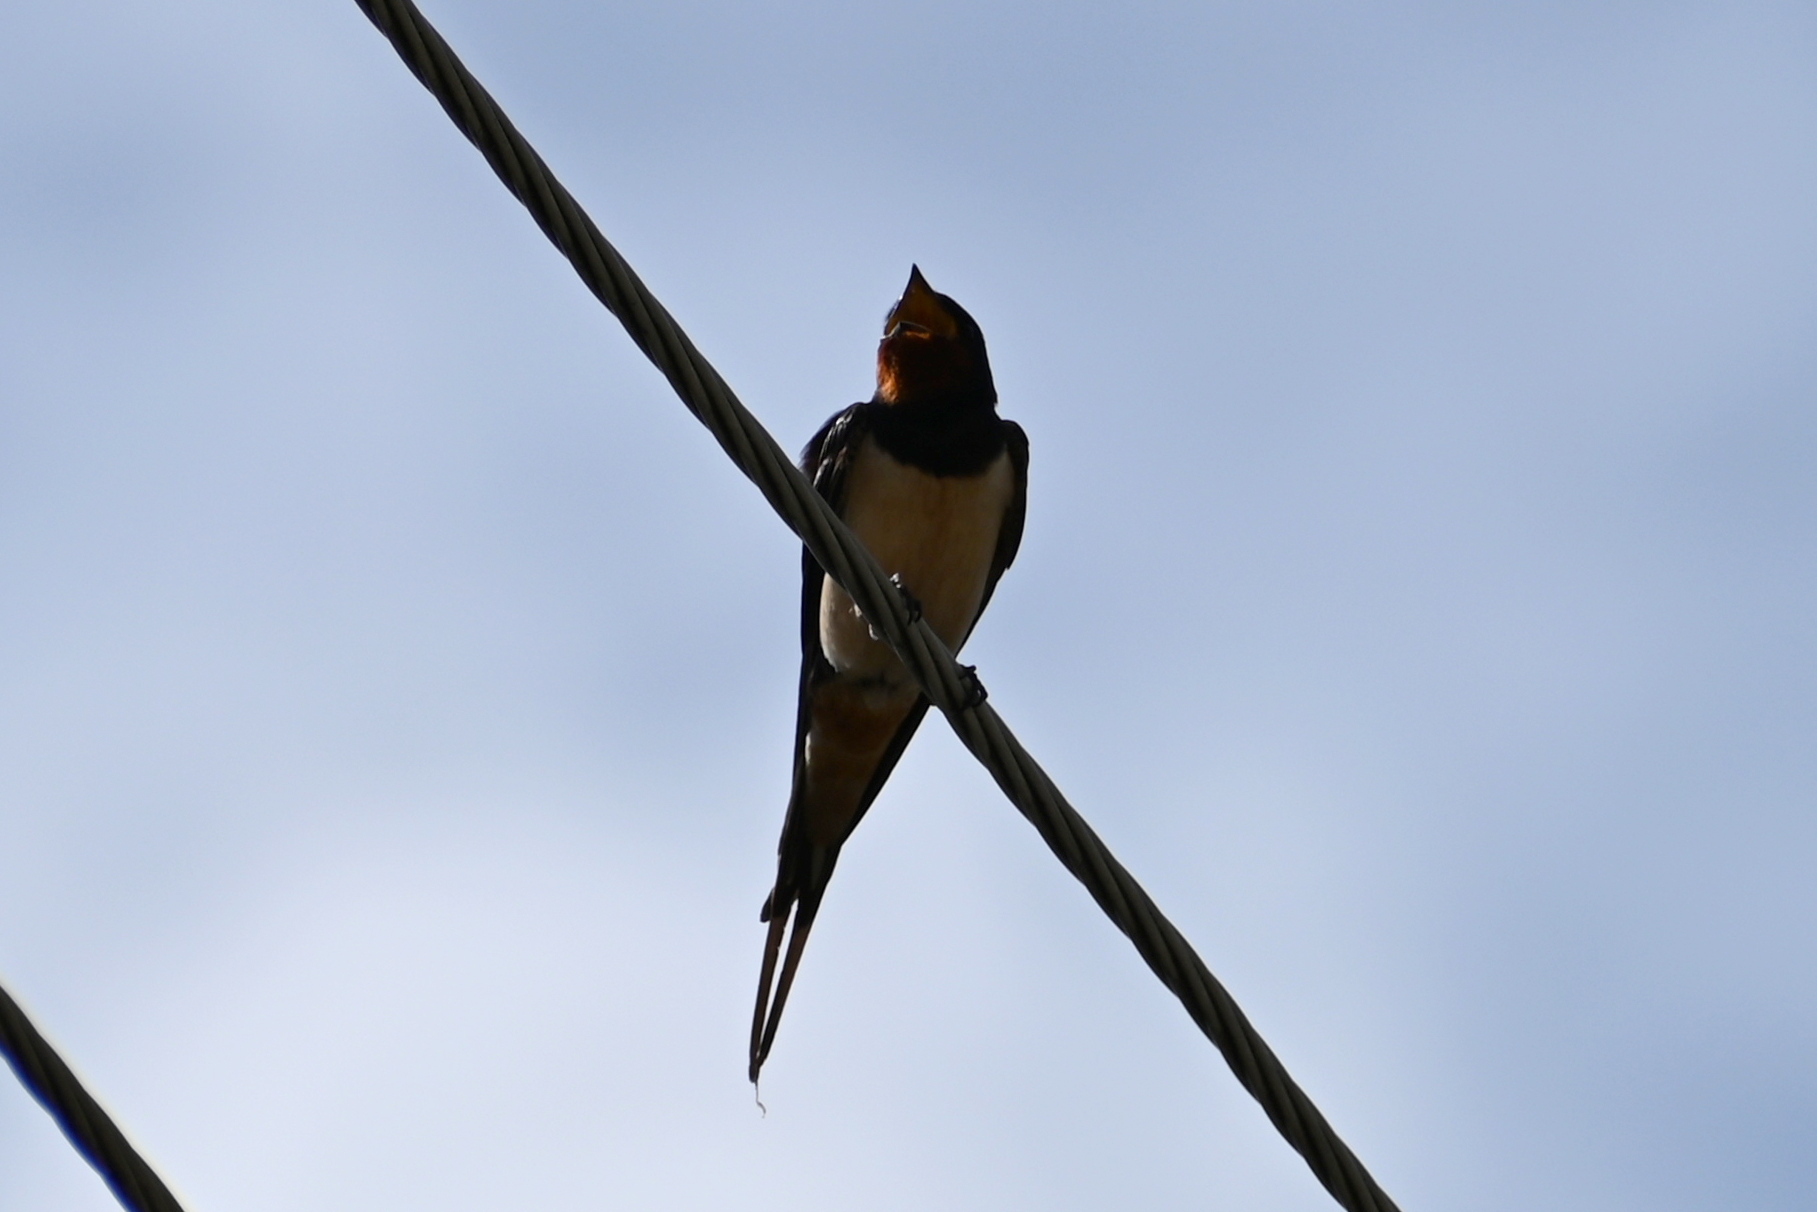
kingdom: Animalia
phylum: Chordata
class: Aves
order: Passeriformes
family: Hirundinidae
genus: Hirundo
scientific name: Hirundo rustica
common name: Barn swallow
